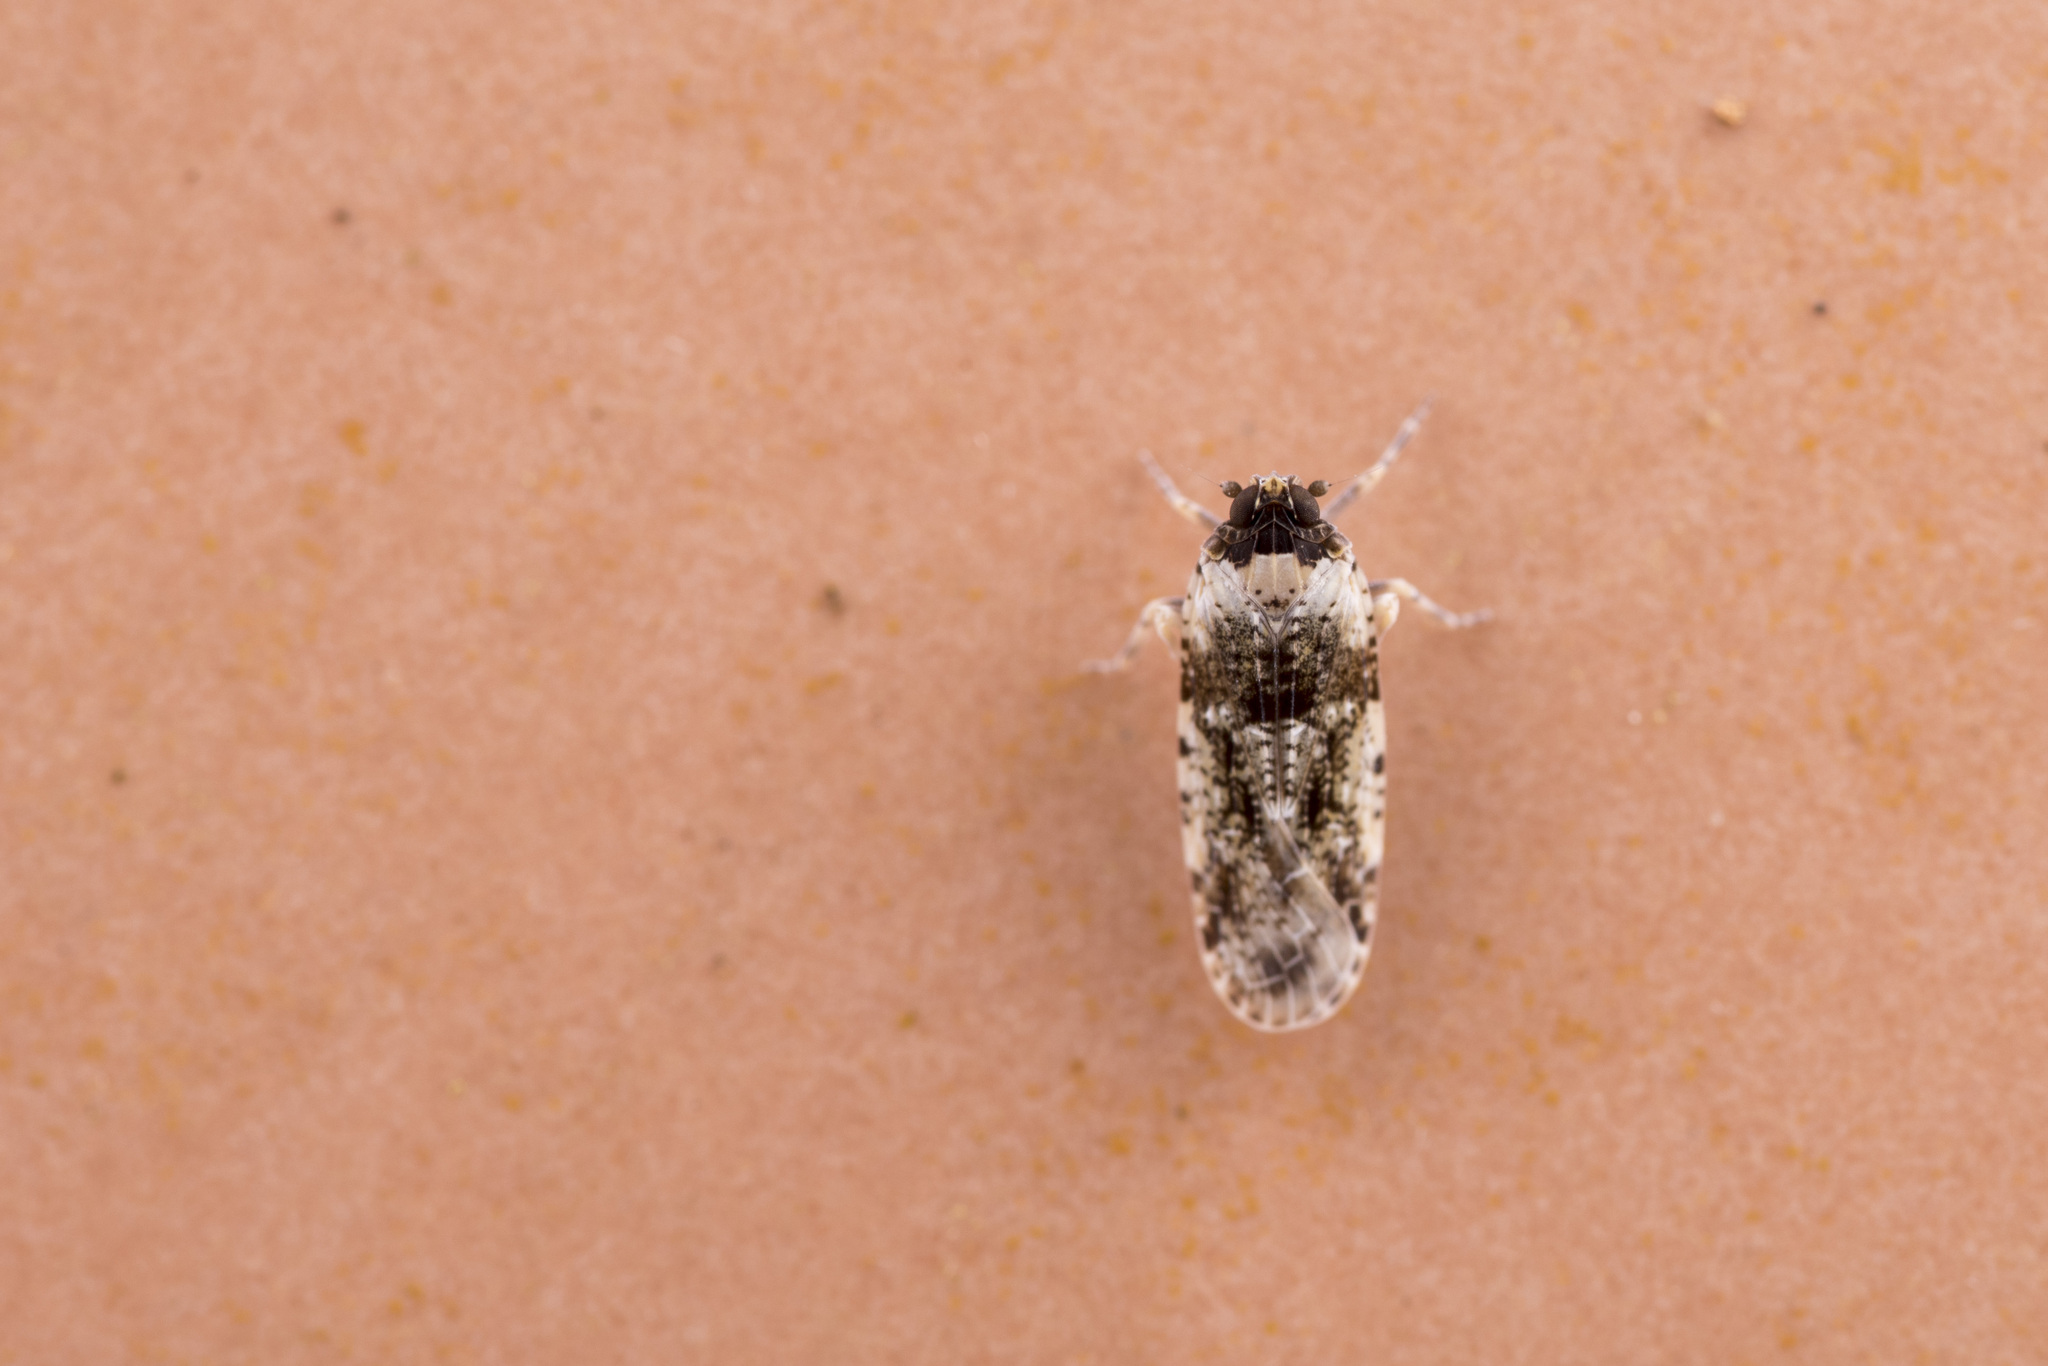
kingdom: Animalia
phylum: Arthropoda
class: Insecta
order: Hemiptera
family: Achilidae
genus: Magadha
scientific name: Magadha redunca
